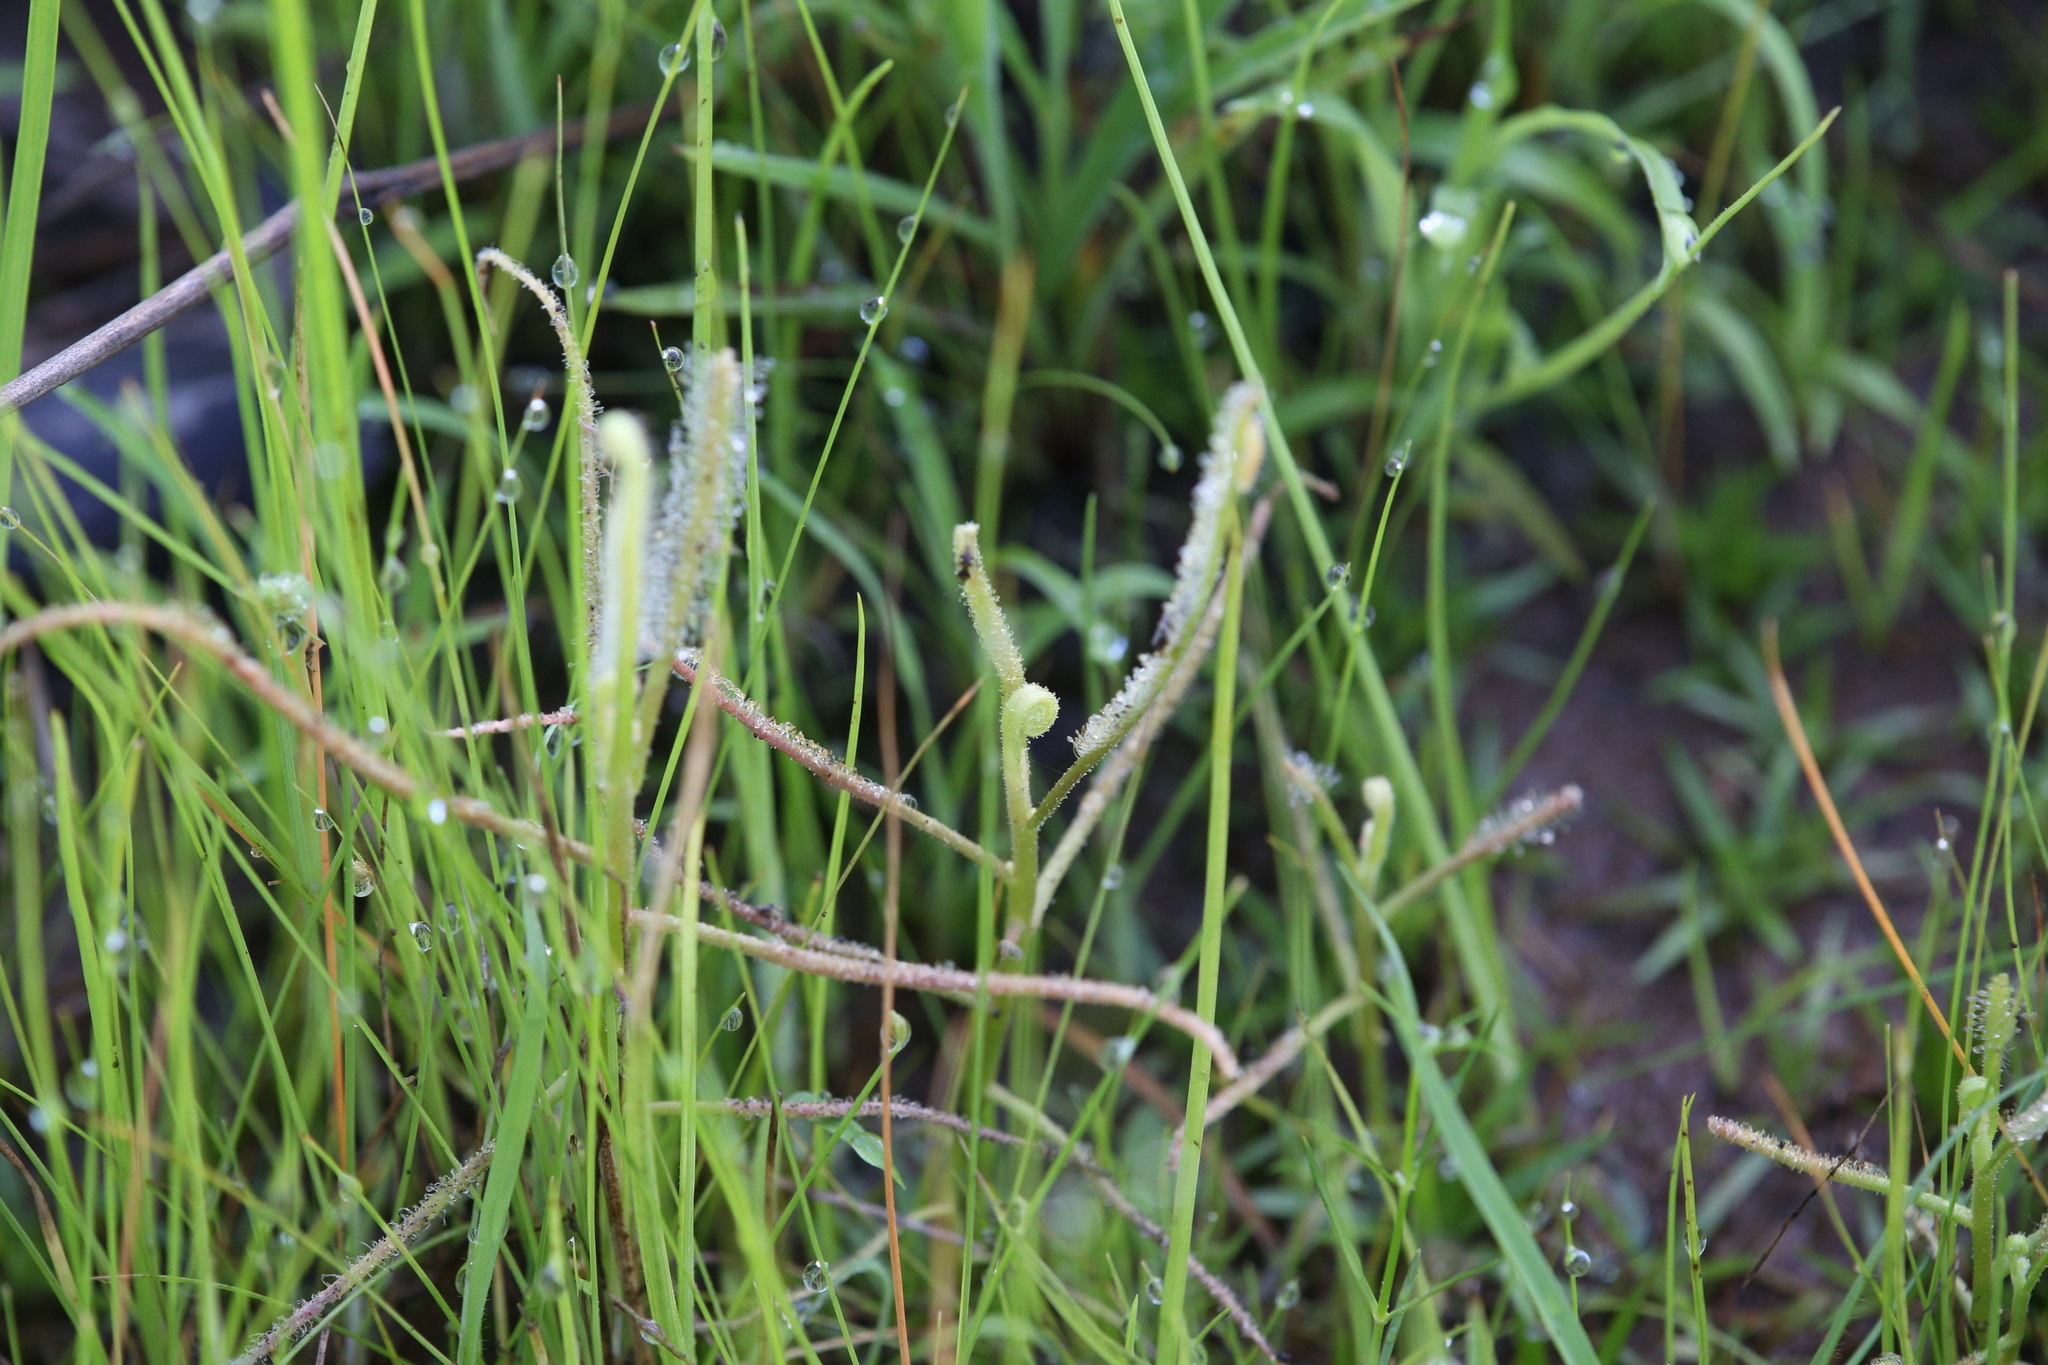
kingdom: Plantae
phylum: Tracheophyta
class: Magnoliopsida
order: Caryophyllales
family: Droseraceae
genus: Drosera
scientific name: Drosera indica
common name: Indian sundew
